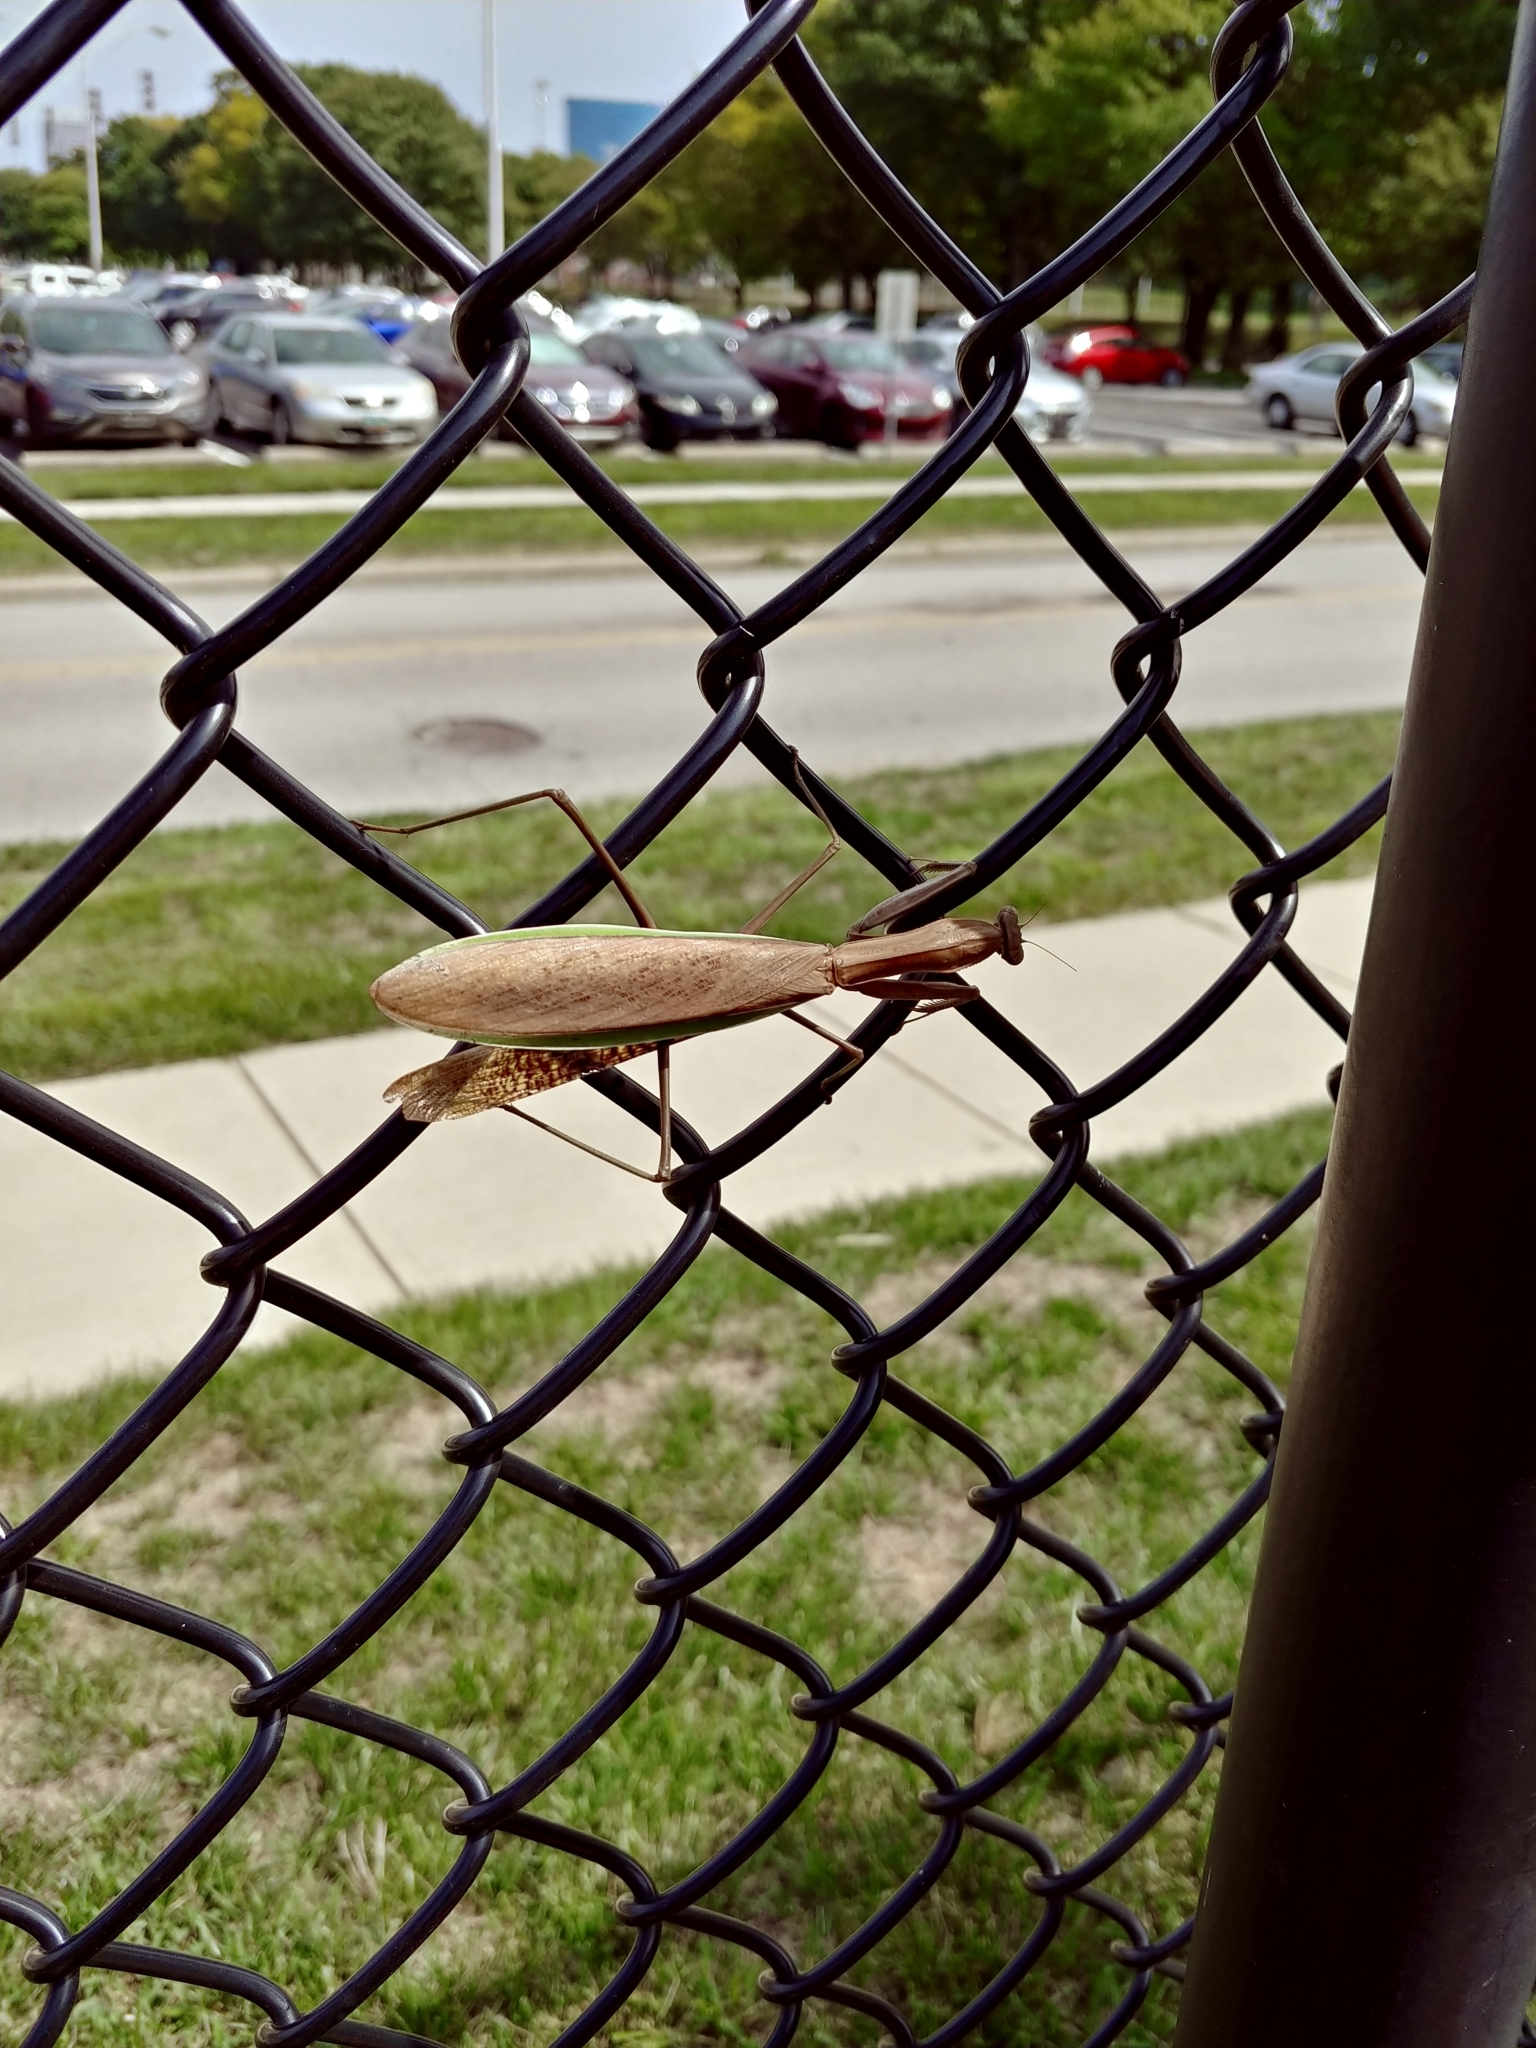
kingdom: Animalia
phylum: Arthropoda
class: Insecta
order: Mantodea
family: Mantidae
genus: Tenodera
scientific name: Tenodera sinensis
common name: Chinese mantis
